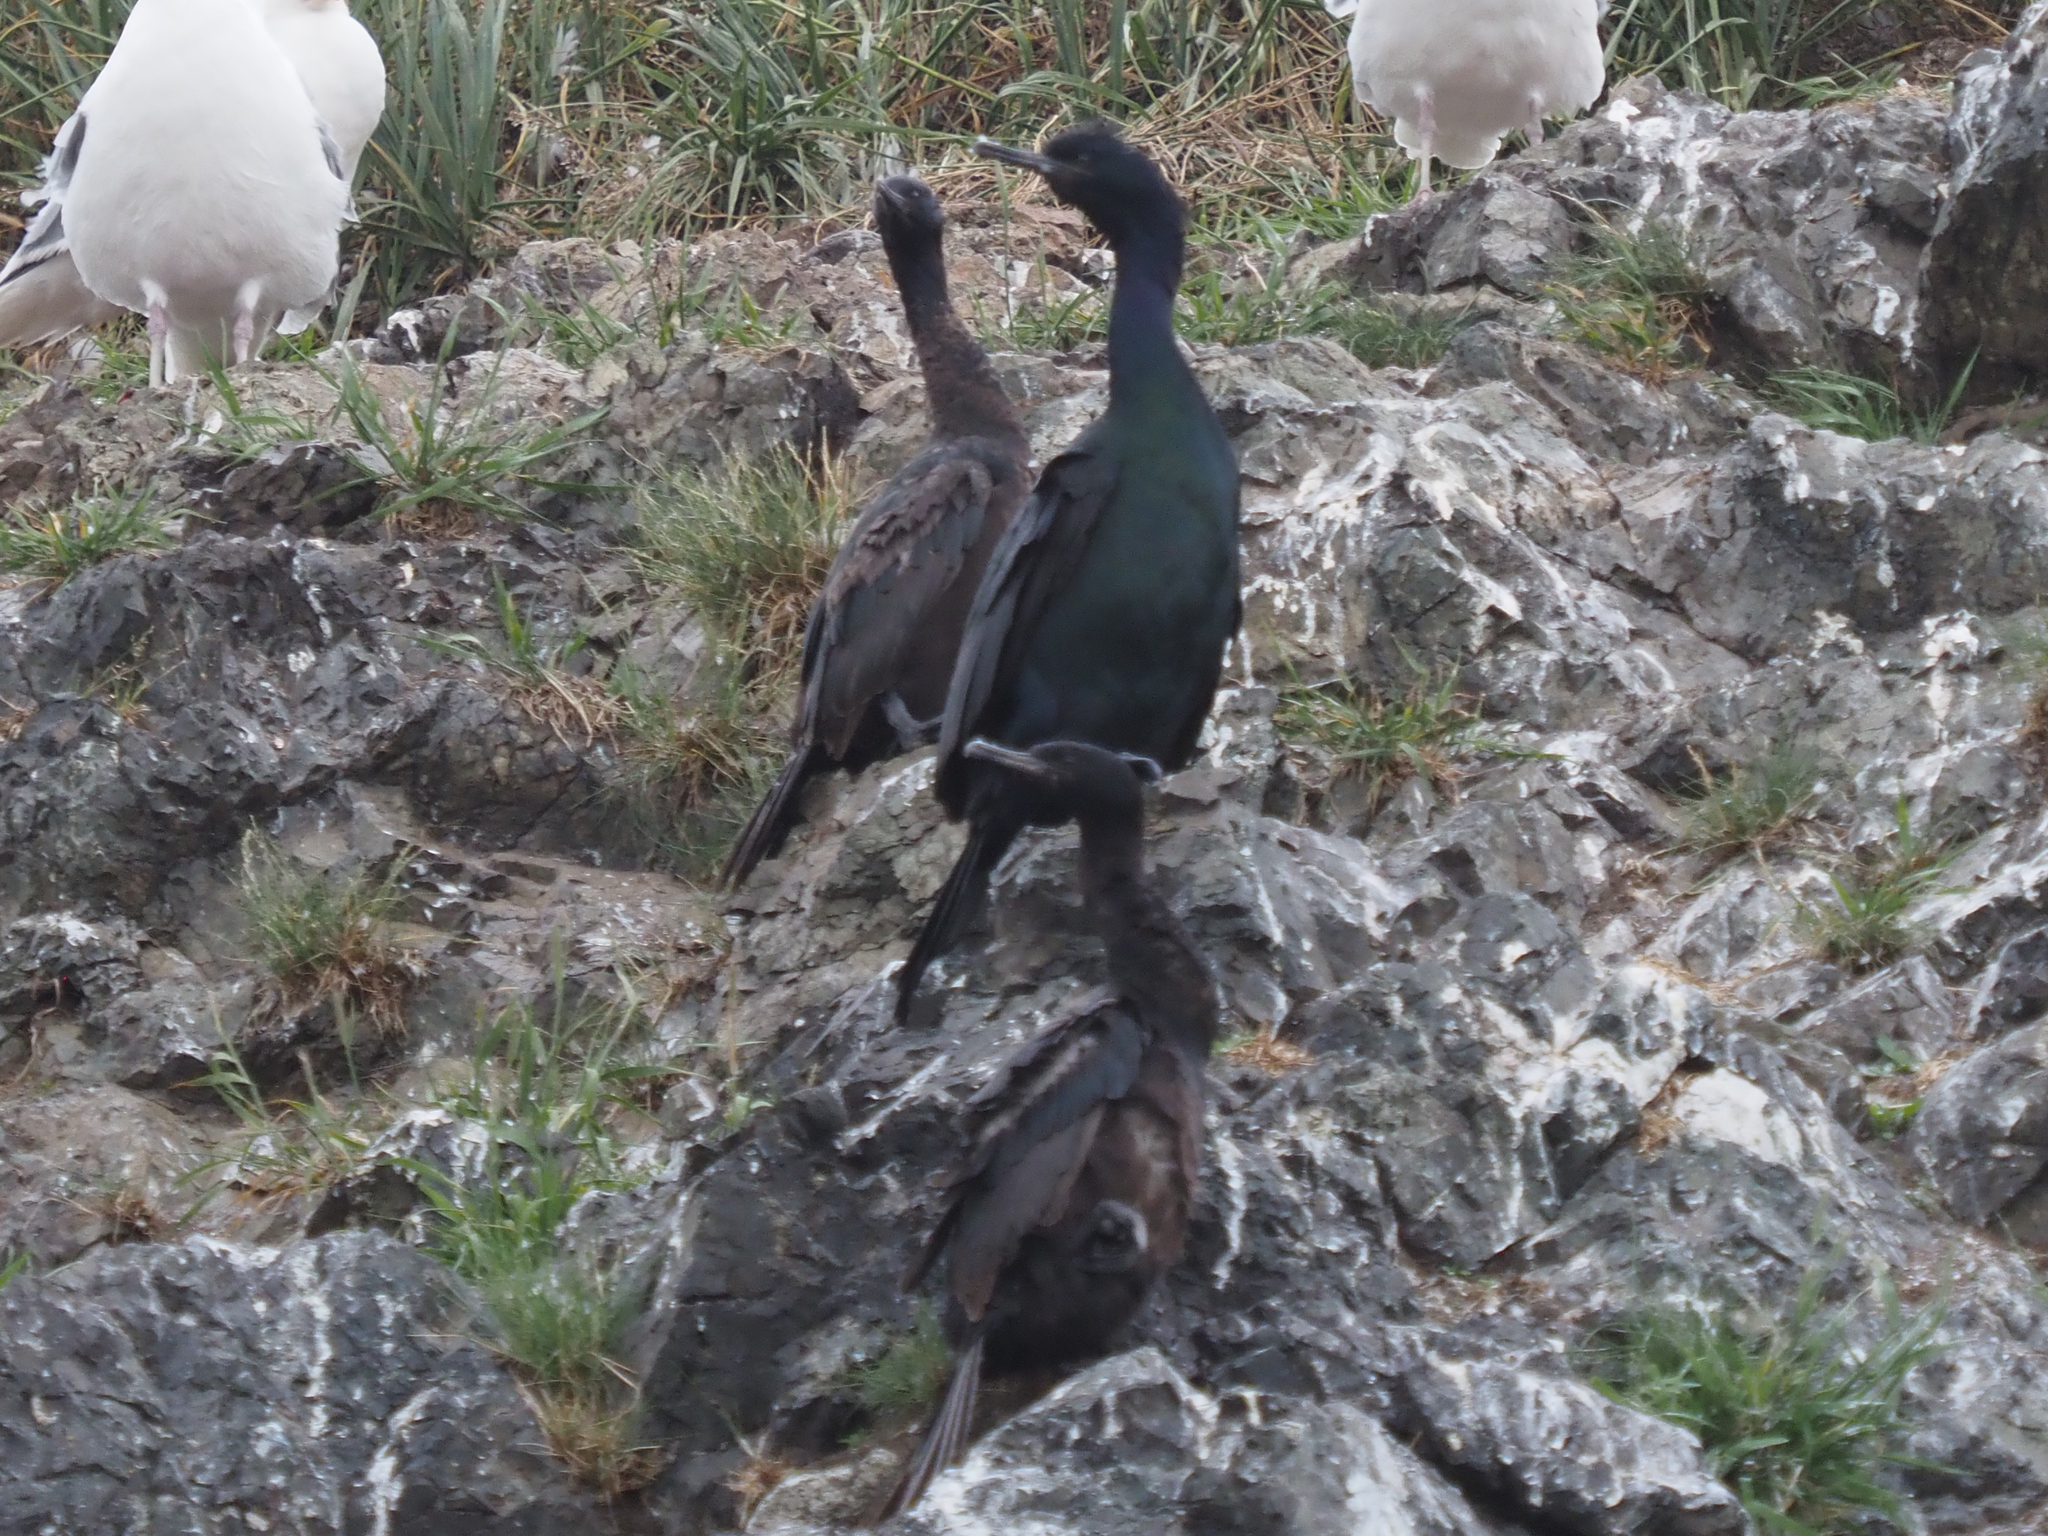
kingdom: Animalia
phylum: Chordata
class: Aves
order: Suliformes
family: Phalacrocoracidae
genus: Phalacrocorax
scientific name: Phalacrocorax pelagicus
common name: Pelagic cormorant
